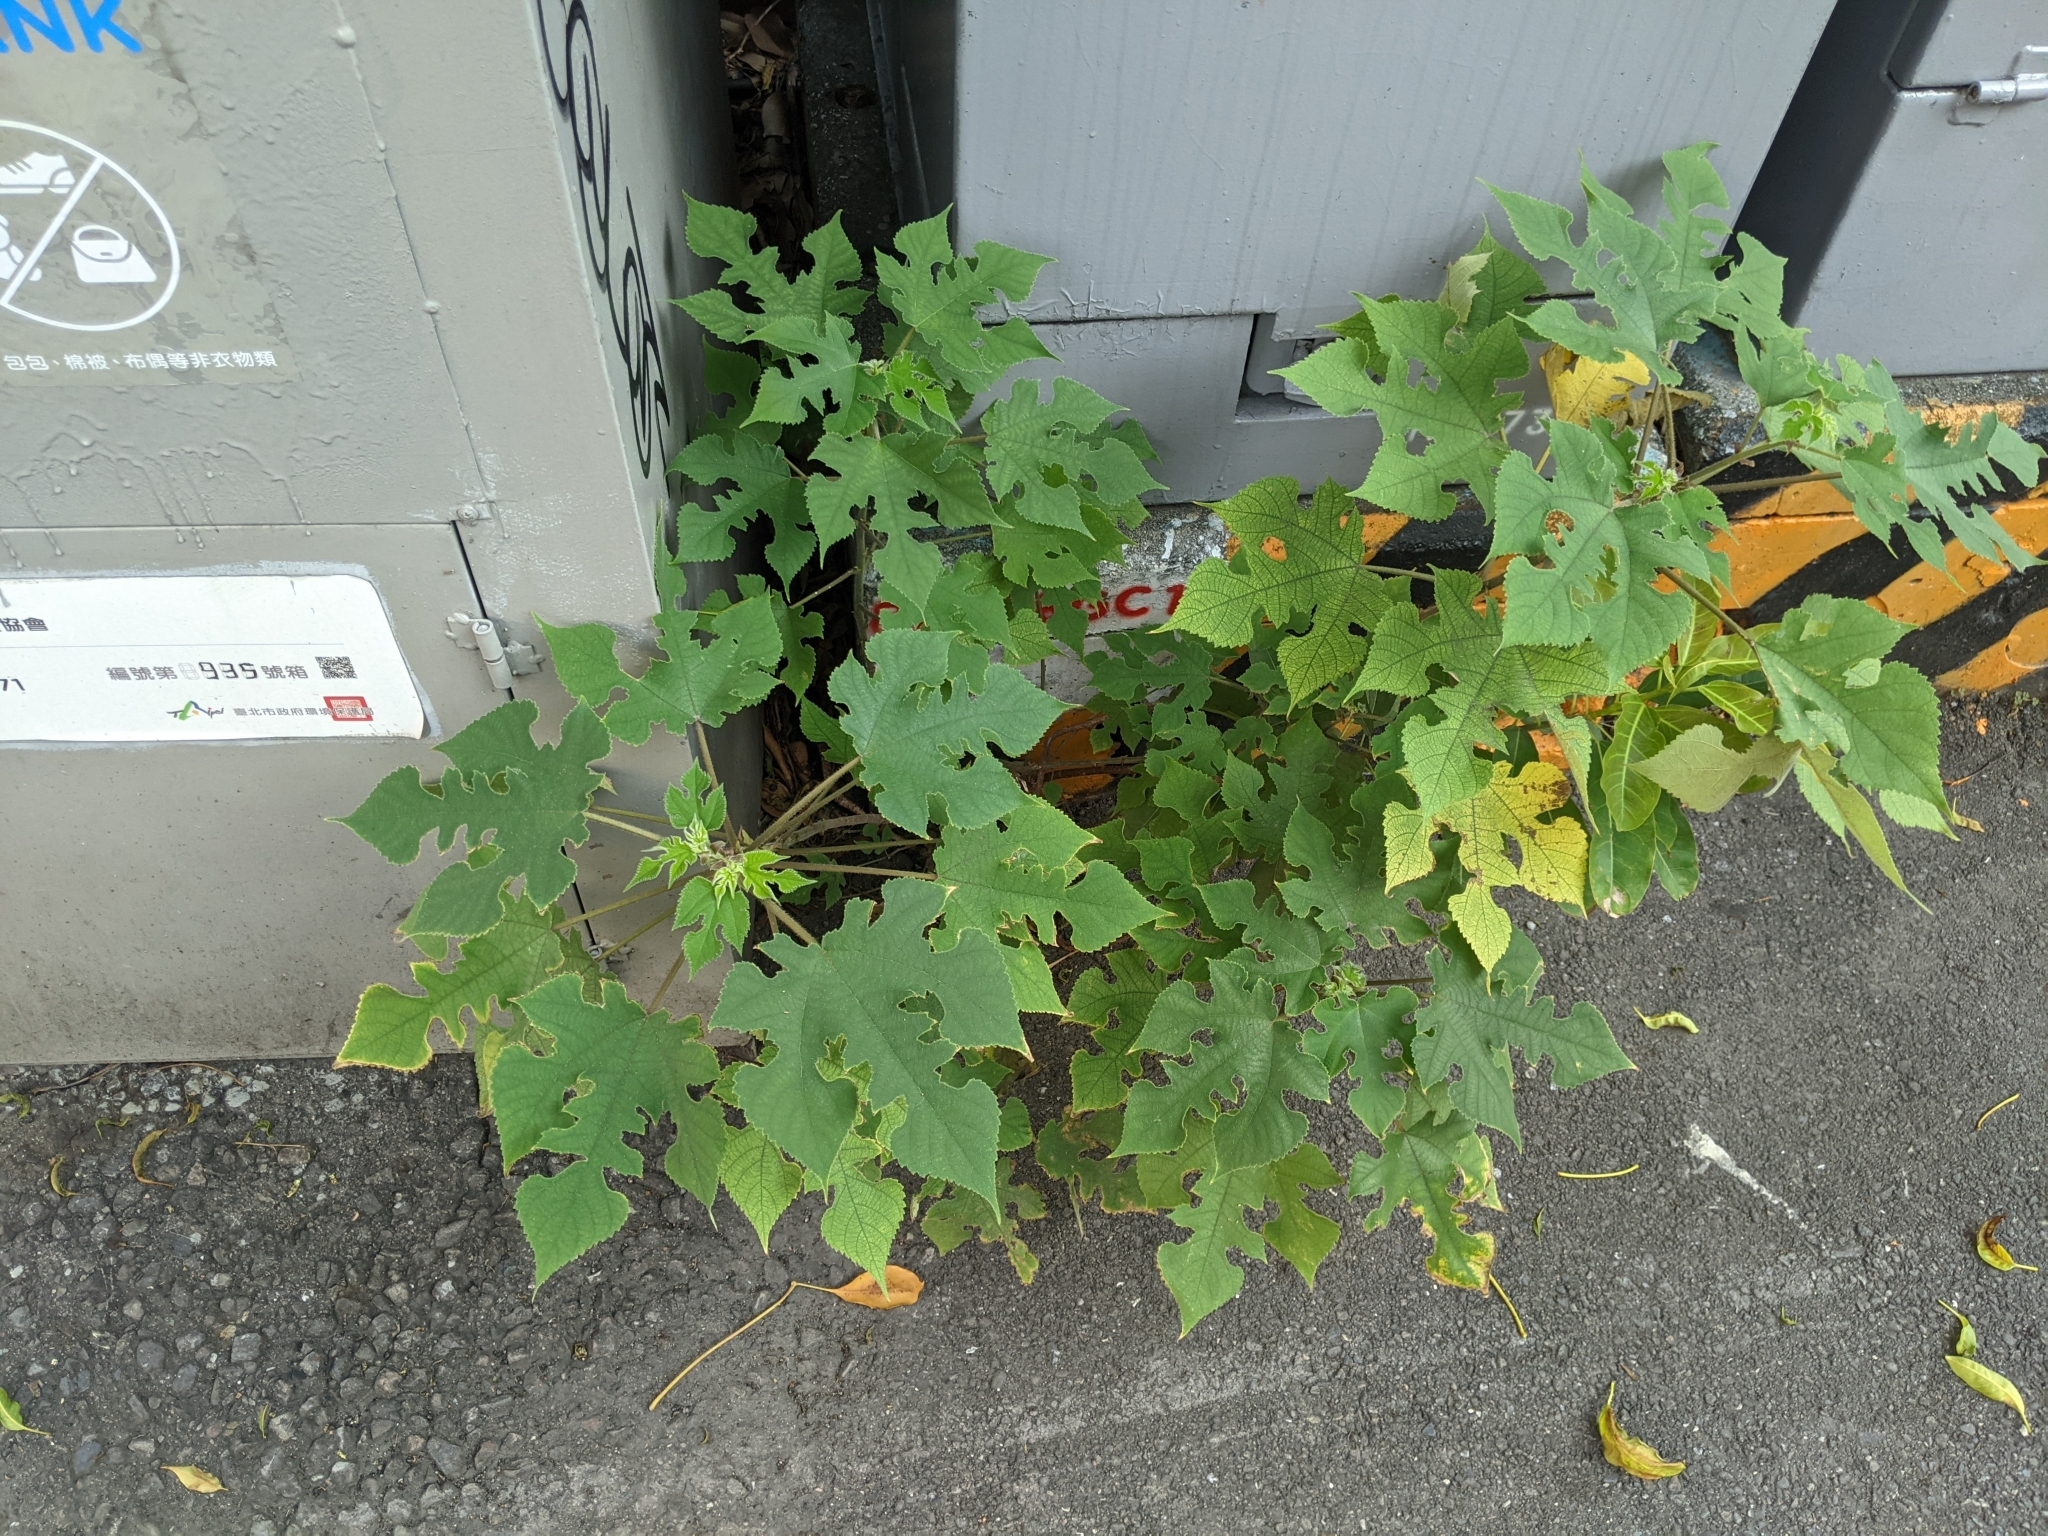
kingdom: Plantae
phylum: Tracheophyta
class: Magnoliopsida
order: Rosales
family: Moraceae
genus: Broussonetia
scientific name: Broussonetia papyrifera
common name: Paper mulberry
